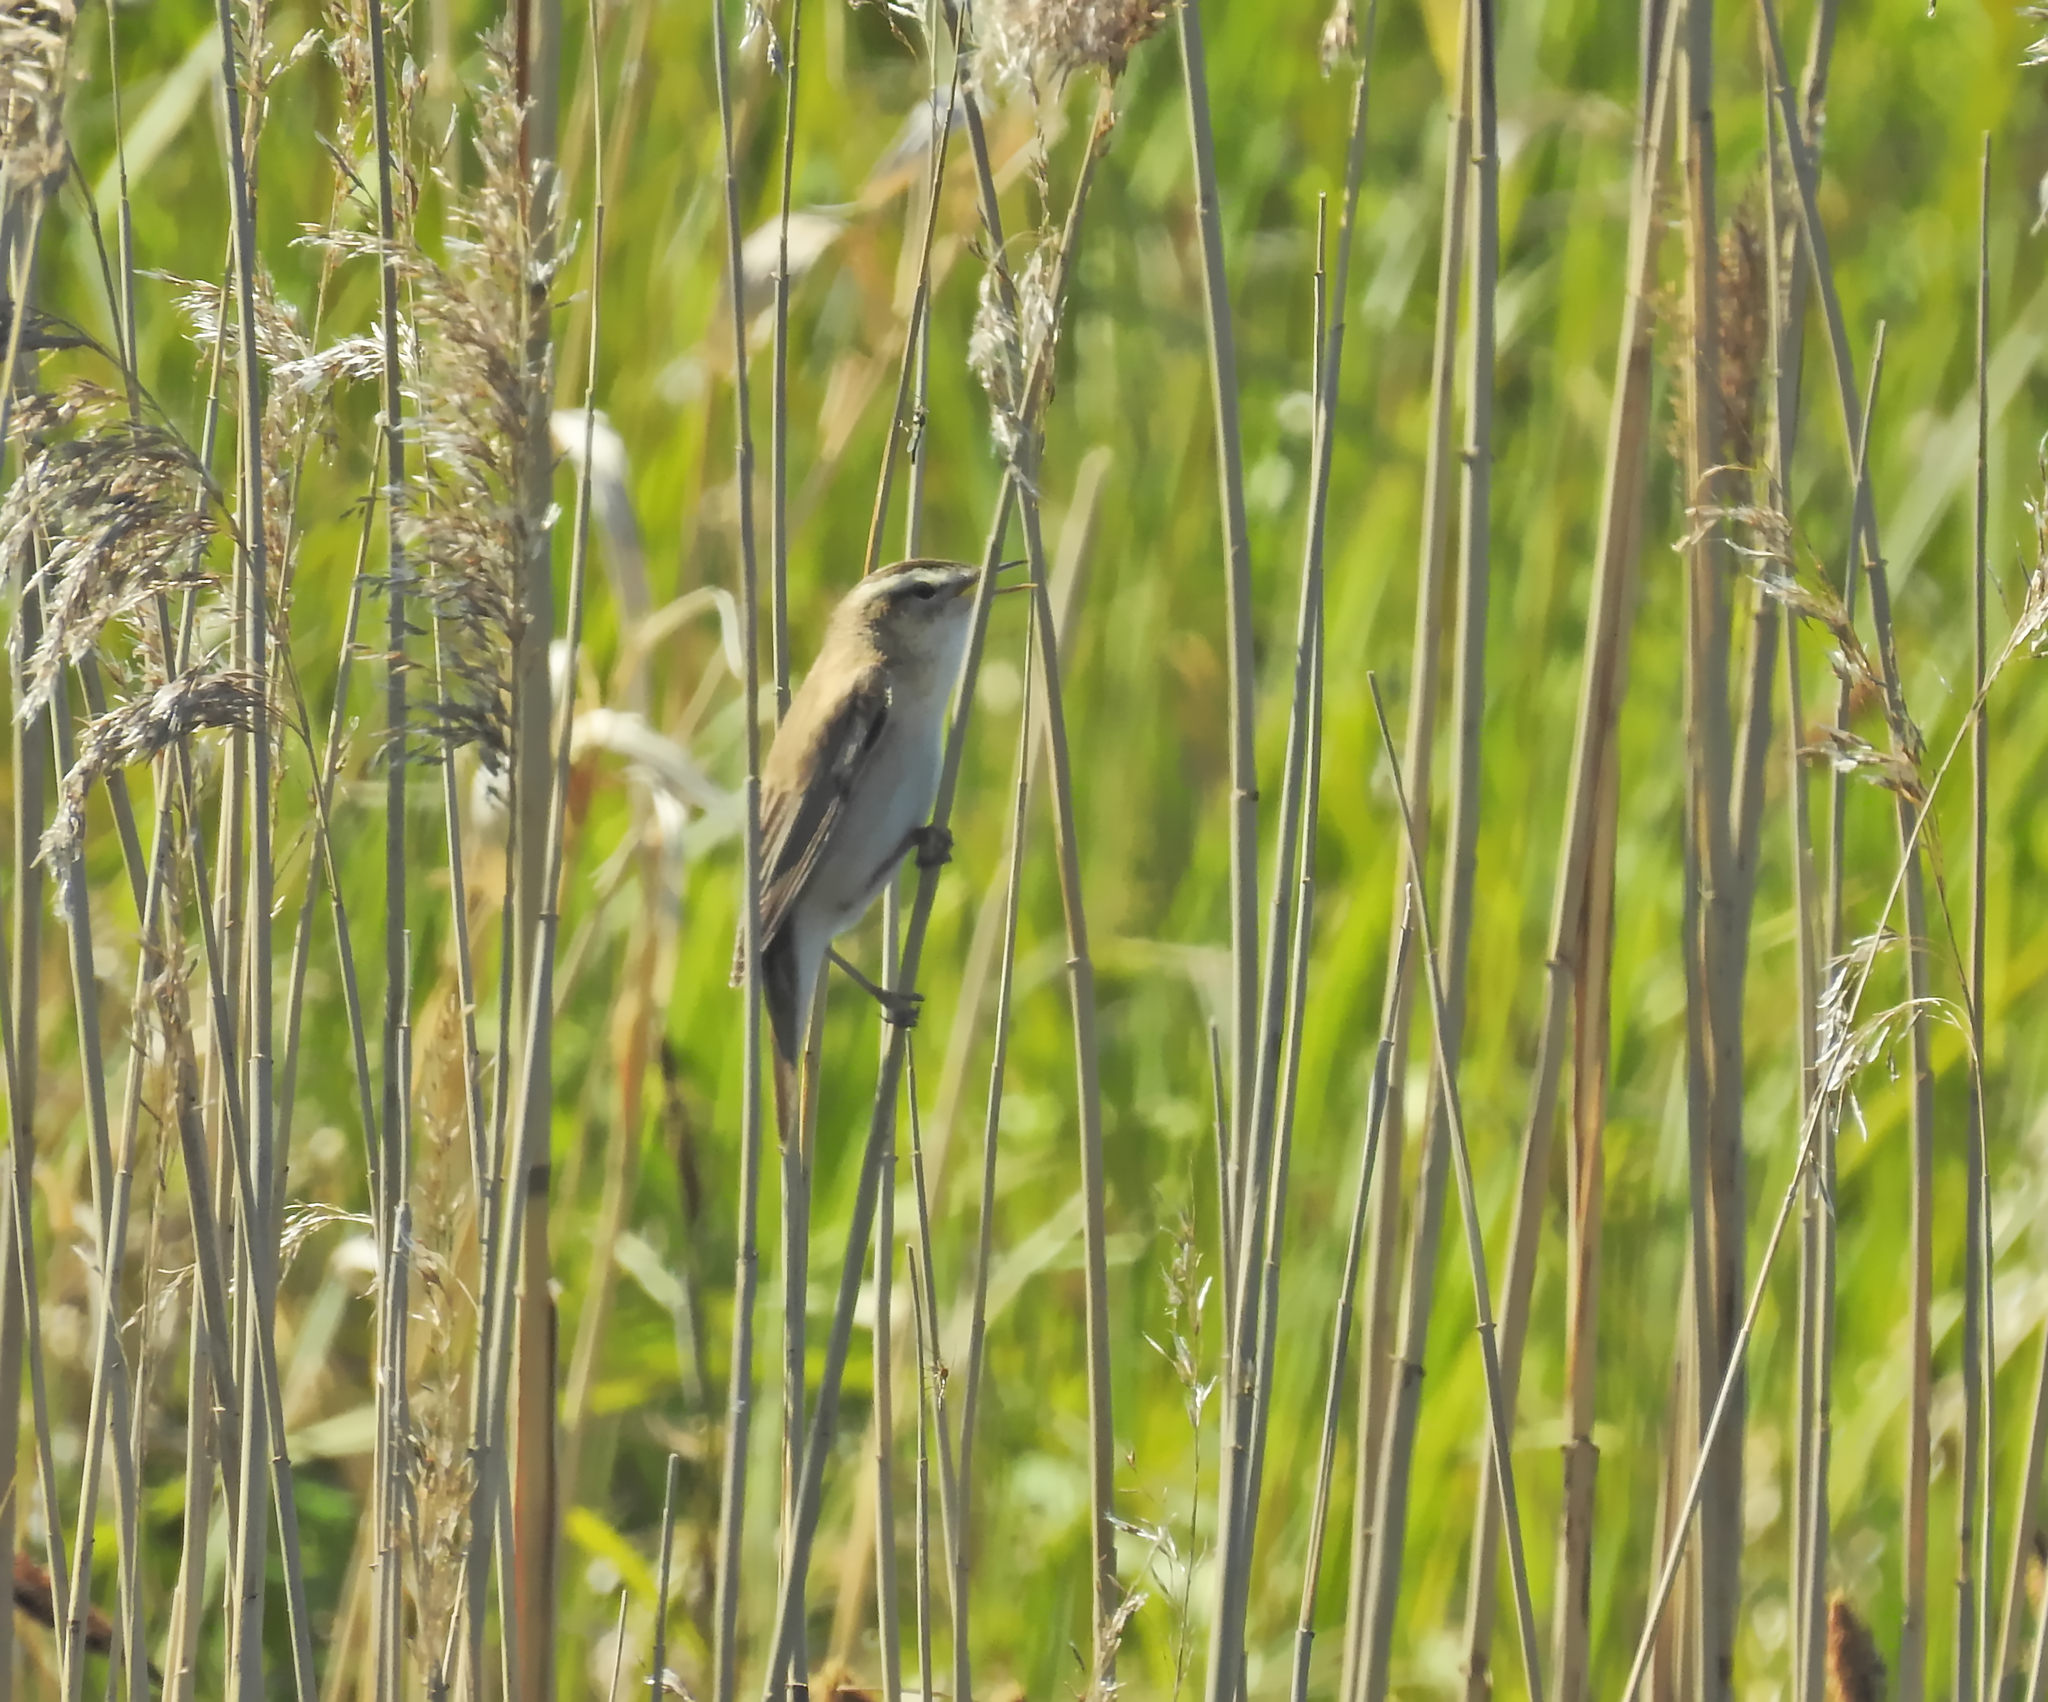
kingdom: Animalia
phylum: Chordata
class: Aves
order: Passeriformes
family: Acrocephalidae
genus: Acrocephalus
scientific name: Acrocephalus schoenobaenus
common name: Sedge warbler
